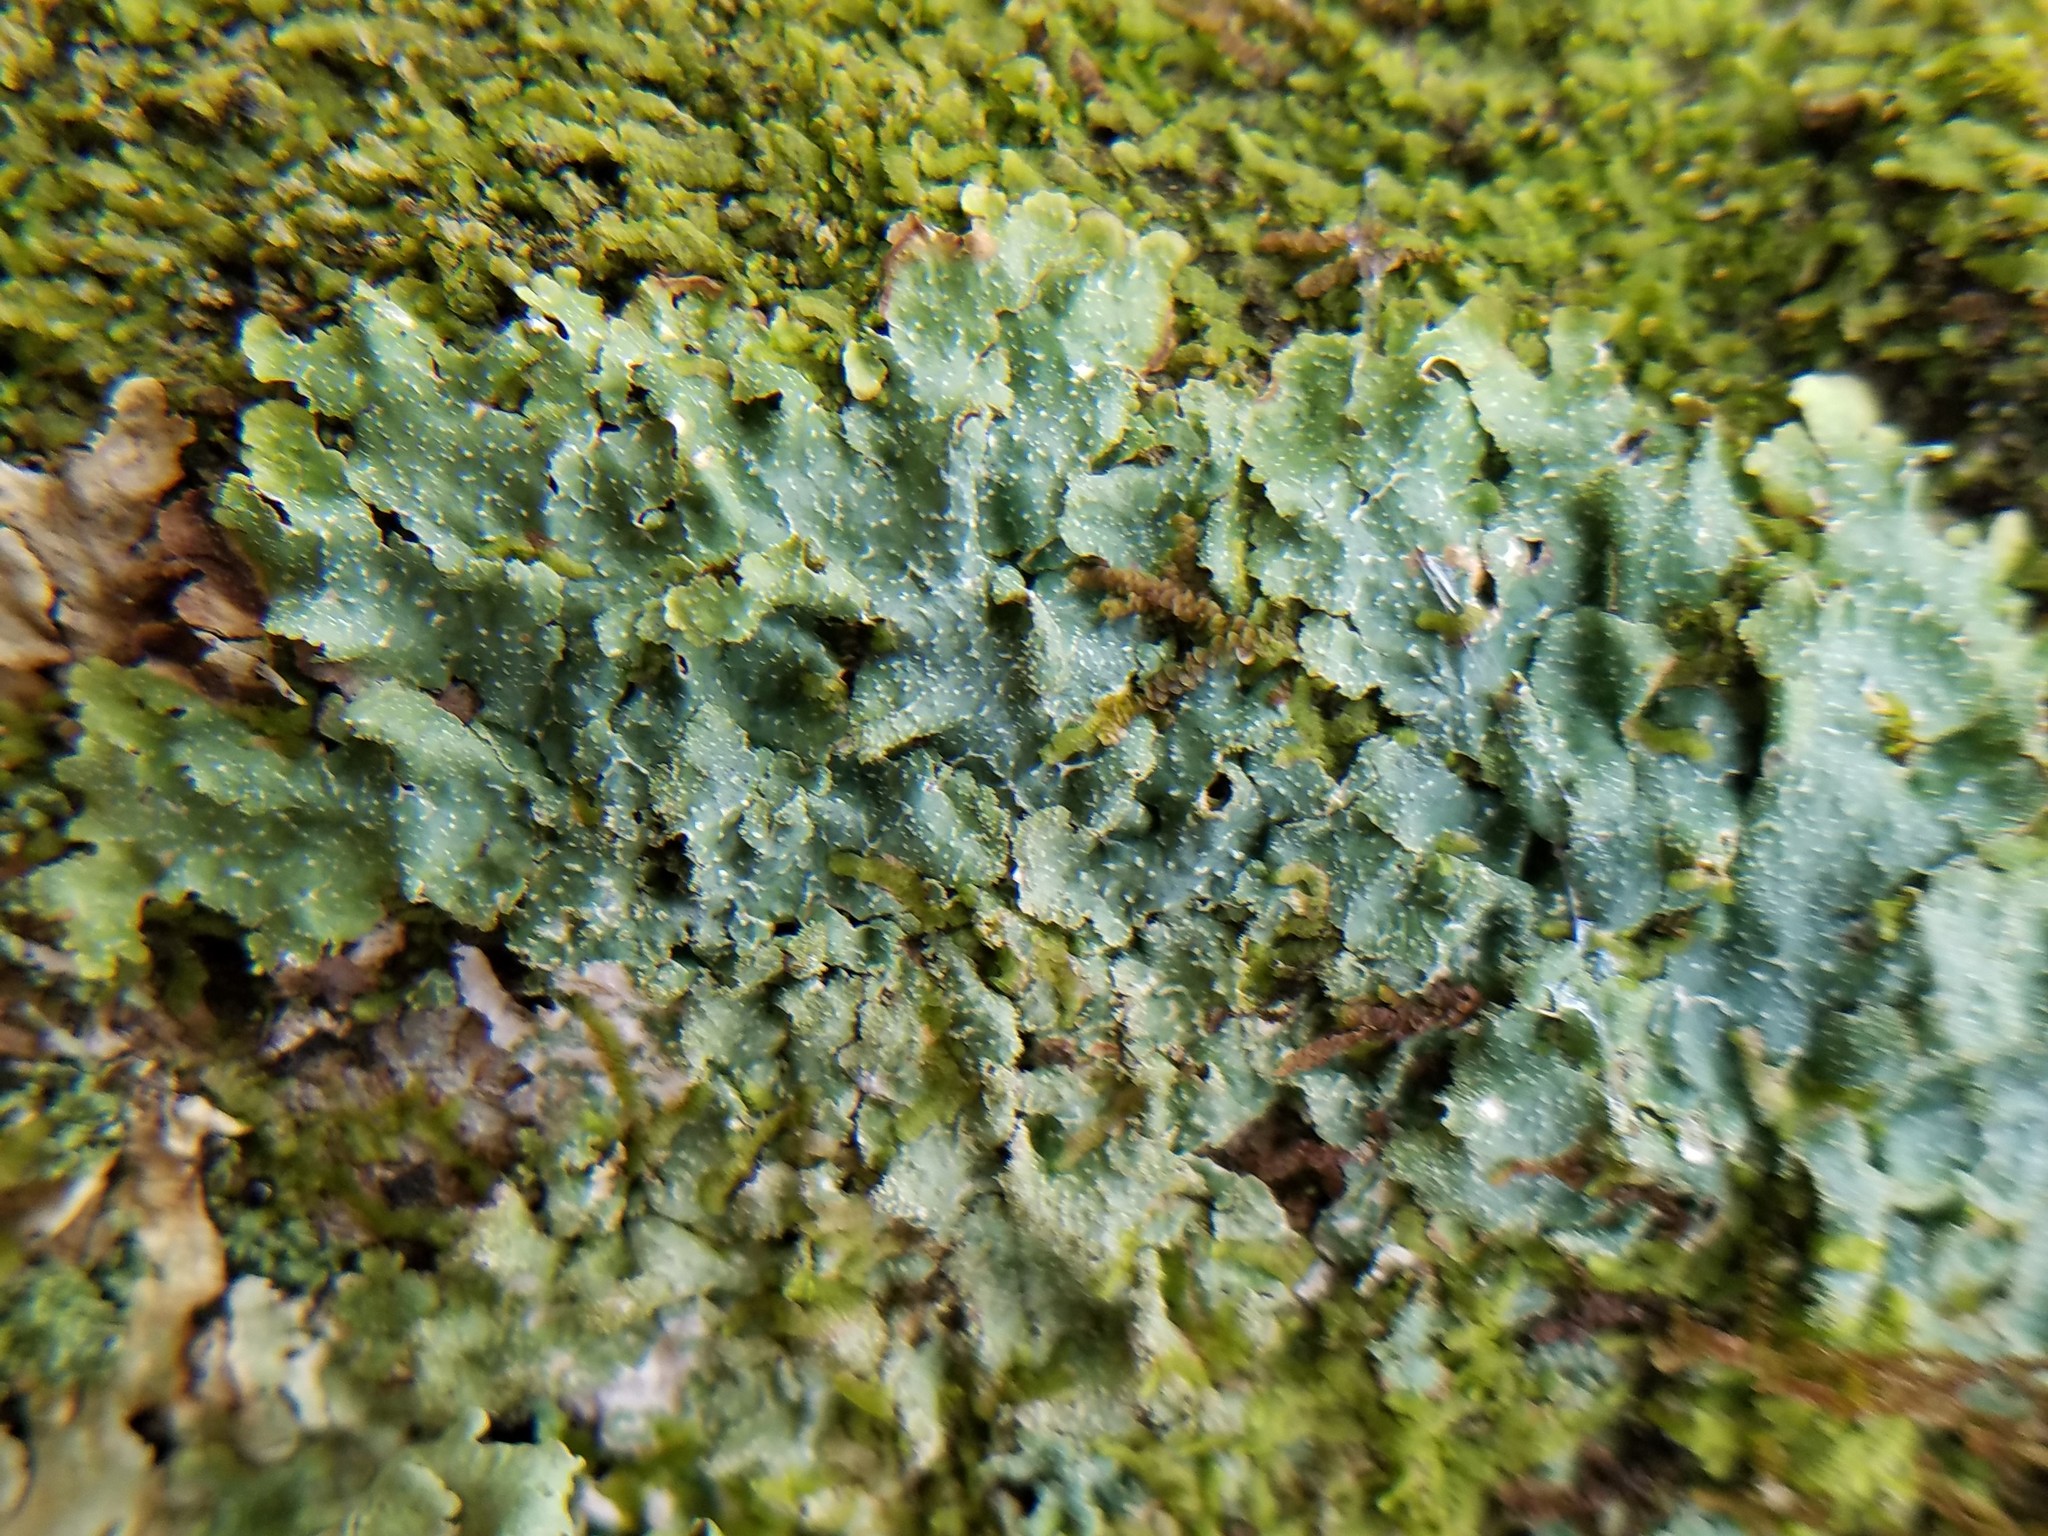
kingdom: Fungi
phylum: Ascomycota
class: Lecanoromycetes
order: Lecanorales
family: Parmeliaceae
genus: Punctelia
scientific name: Punctelia rudecta
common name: Rough speckled shield lichen
